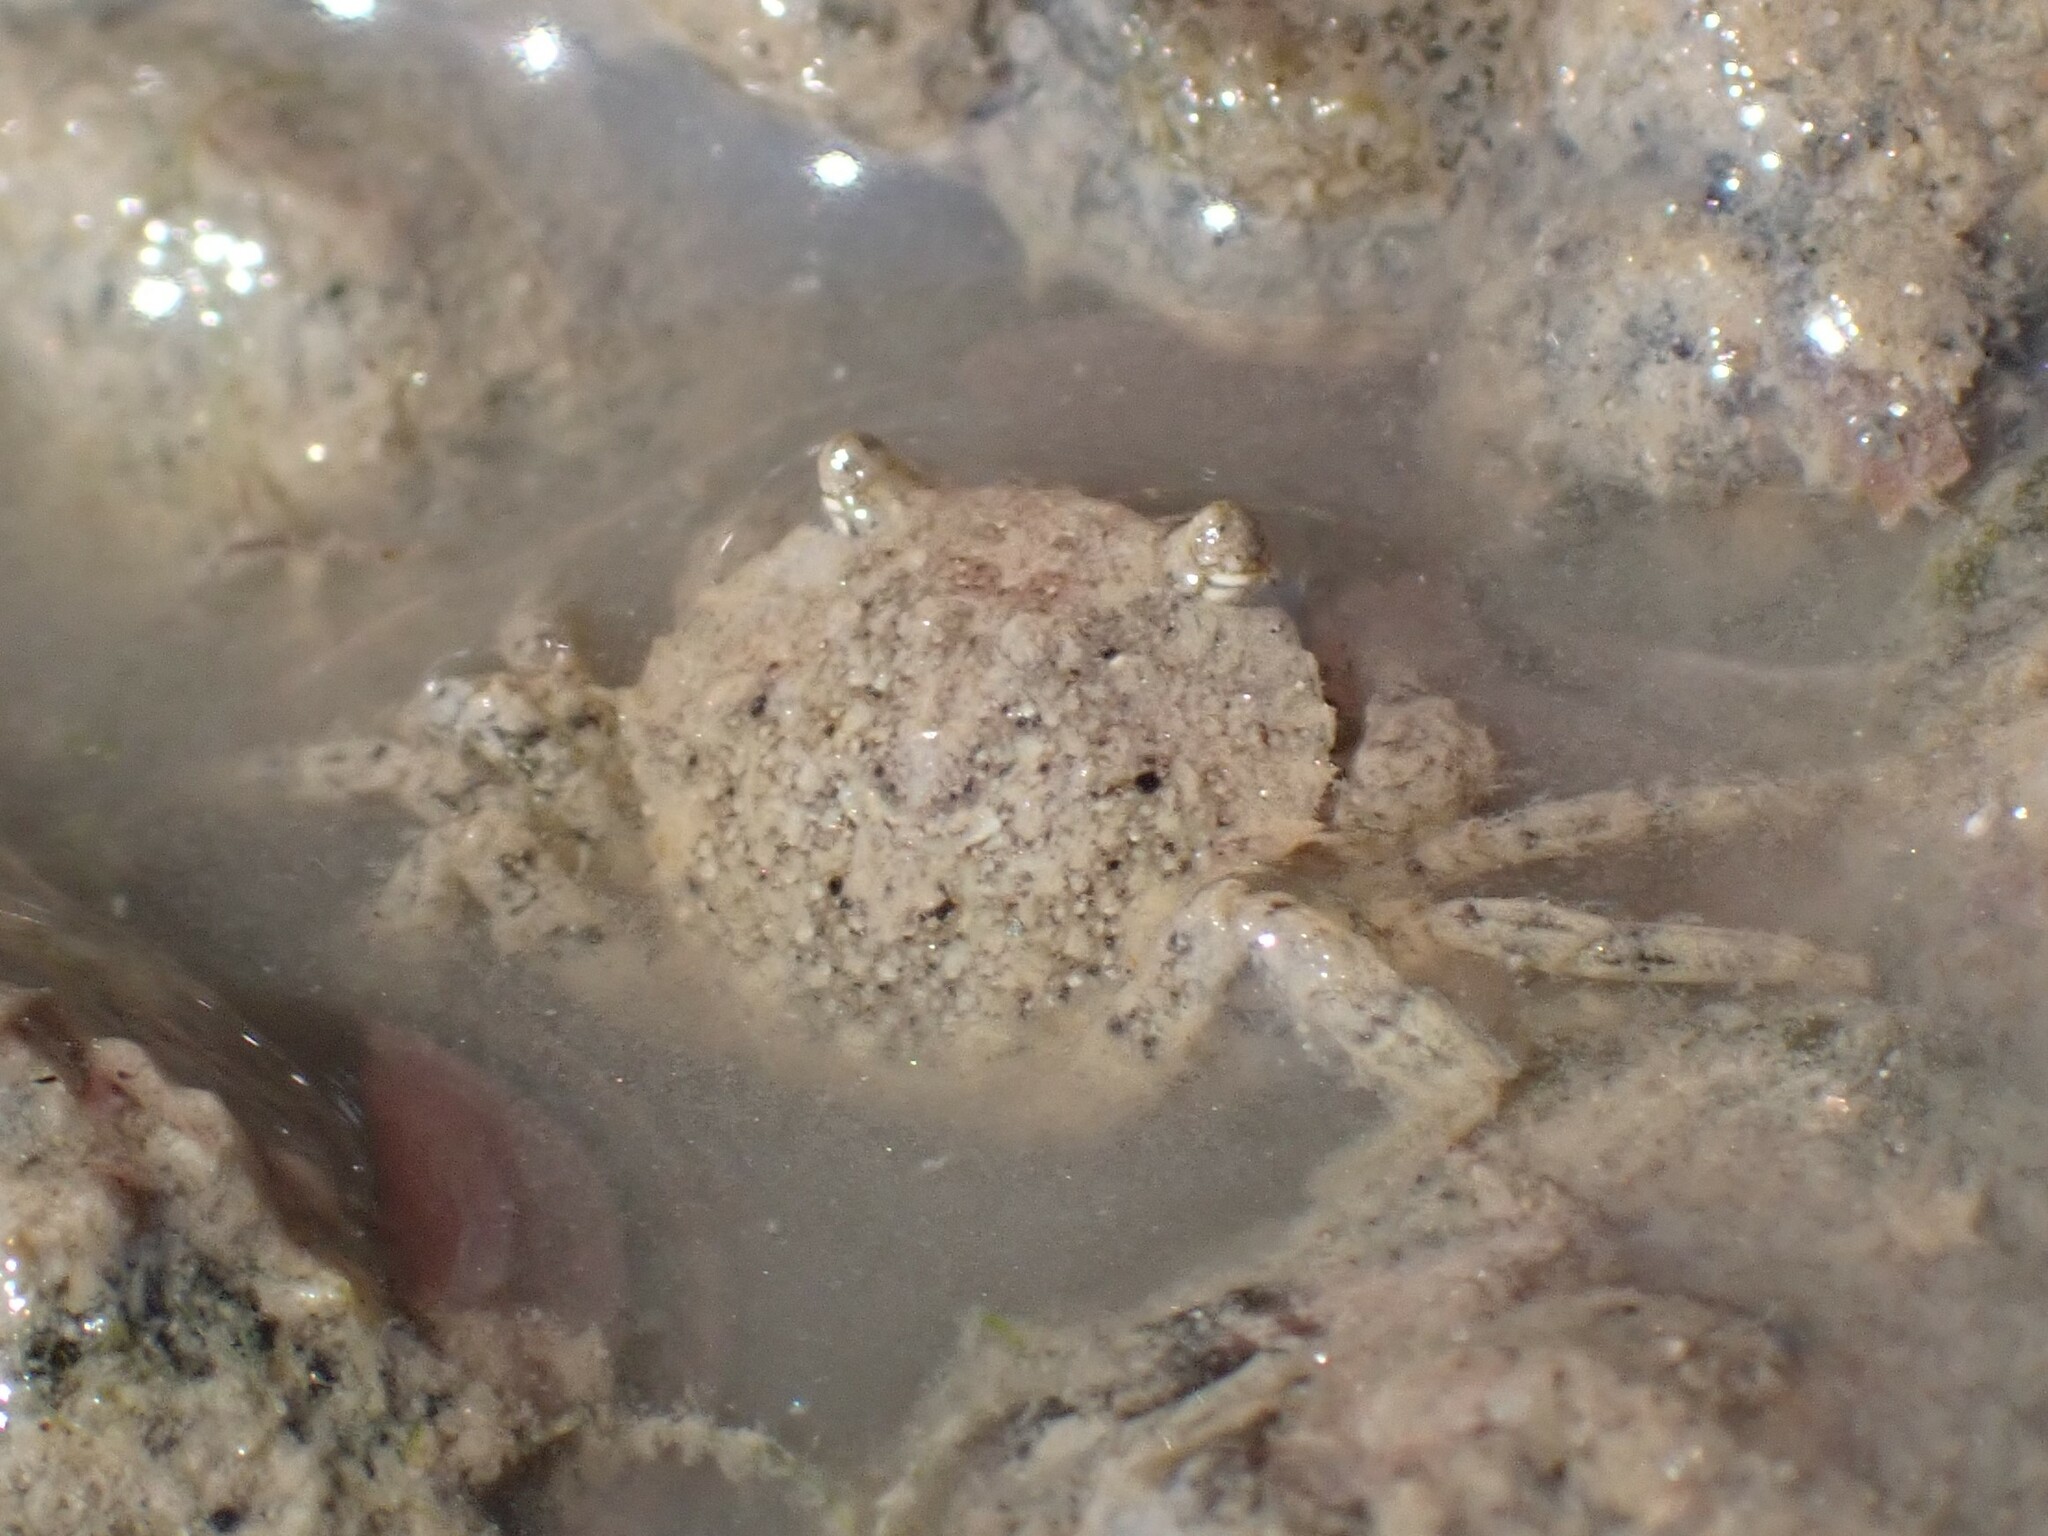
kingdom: Animalia
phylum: Arthropoda
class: Malacostraca
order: Decapoda
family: Carcinidae
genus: Carcinus
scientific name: Carcinus maenas
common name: European green crab
